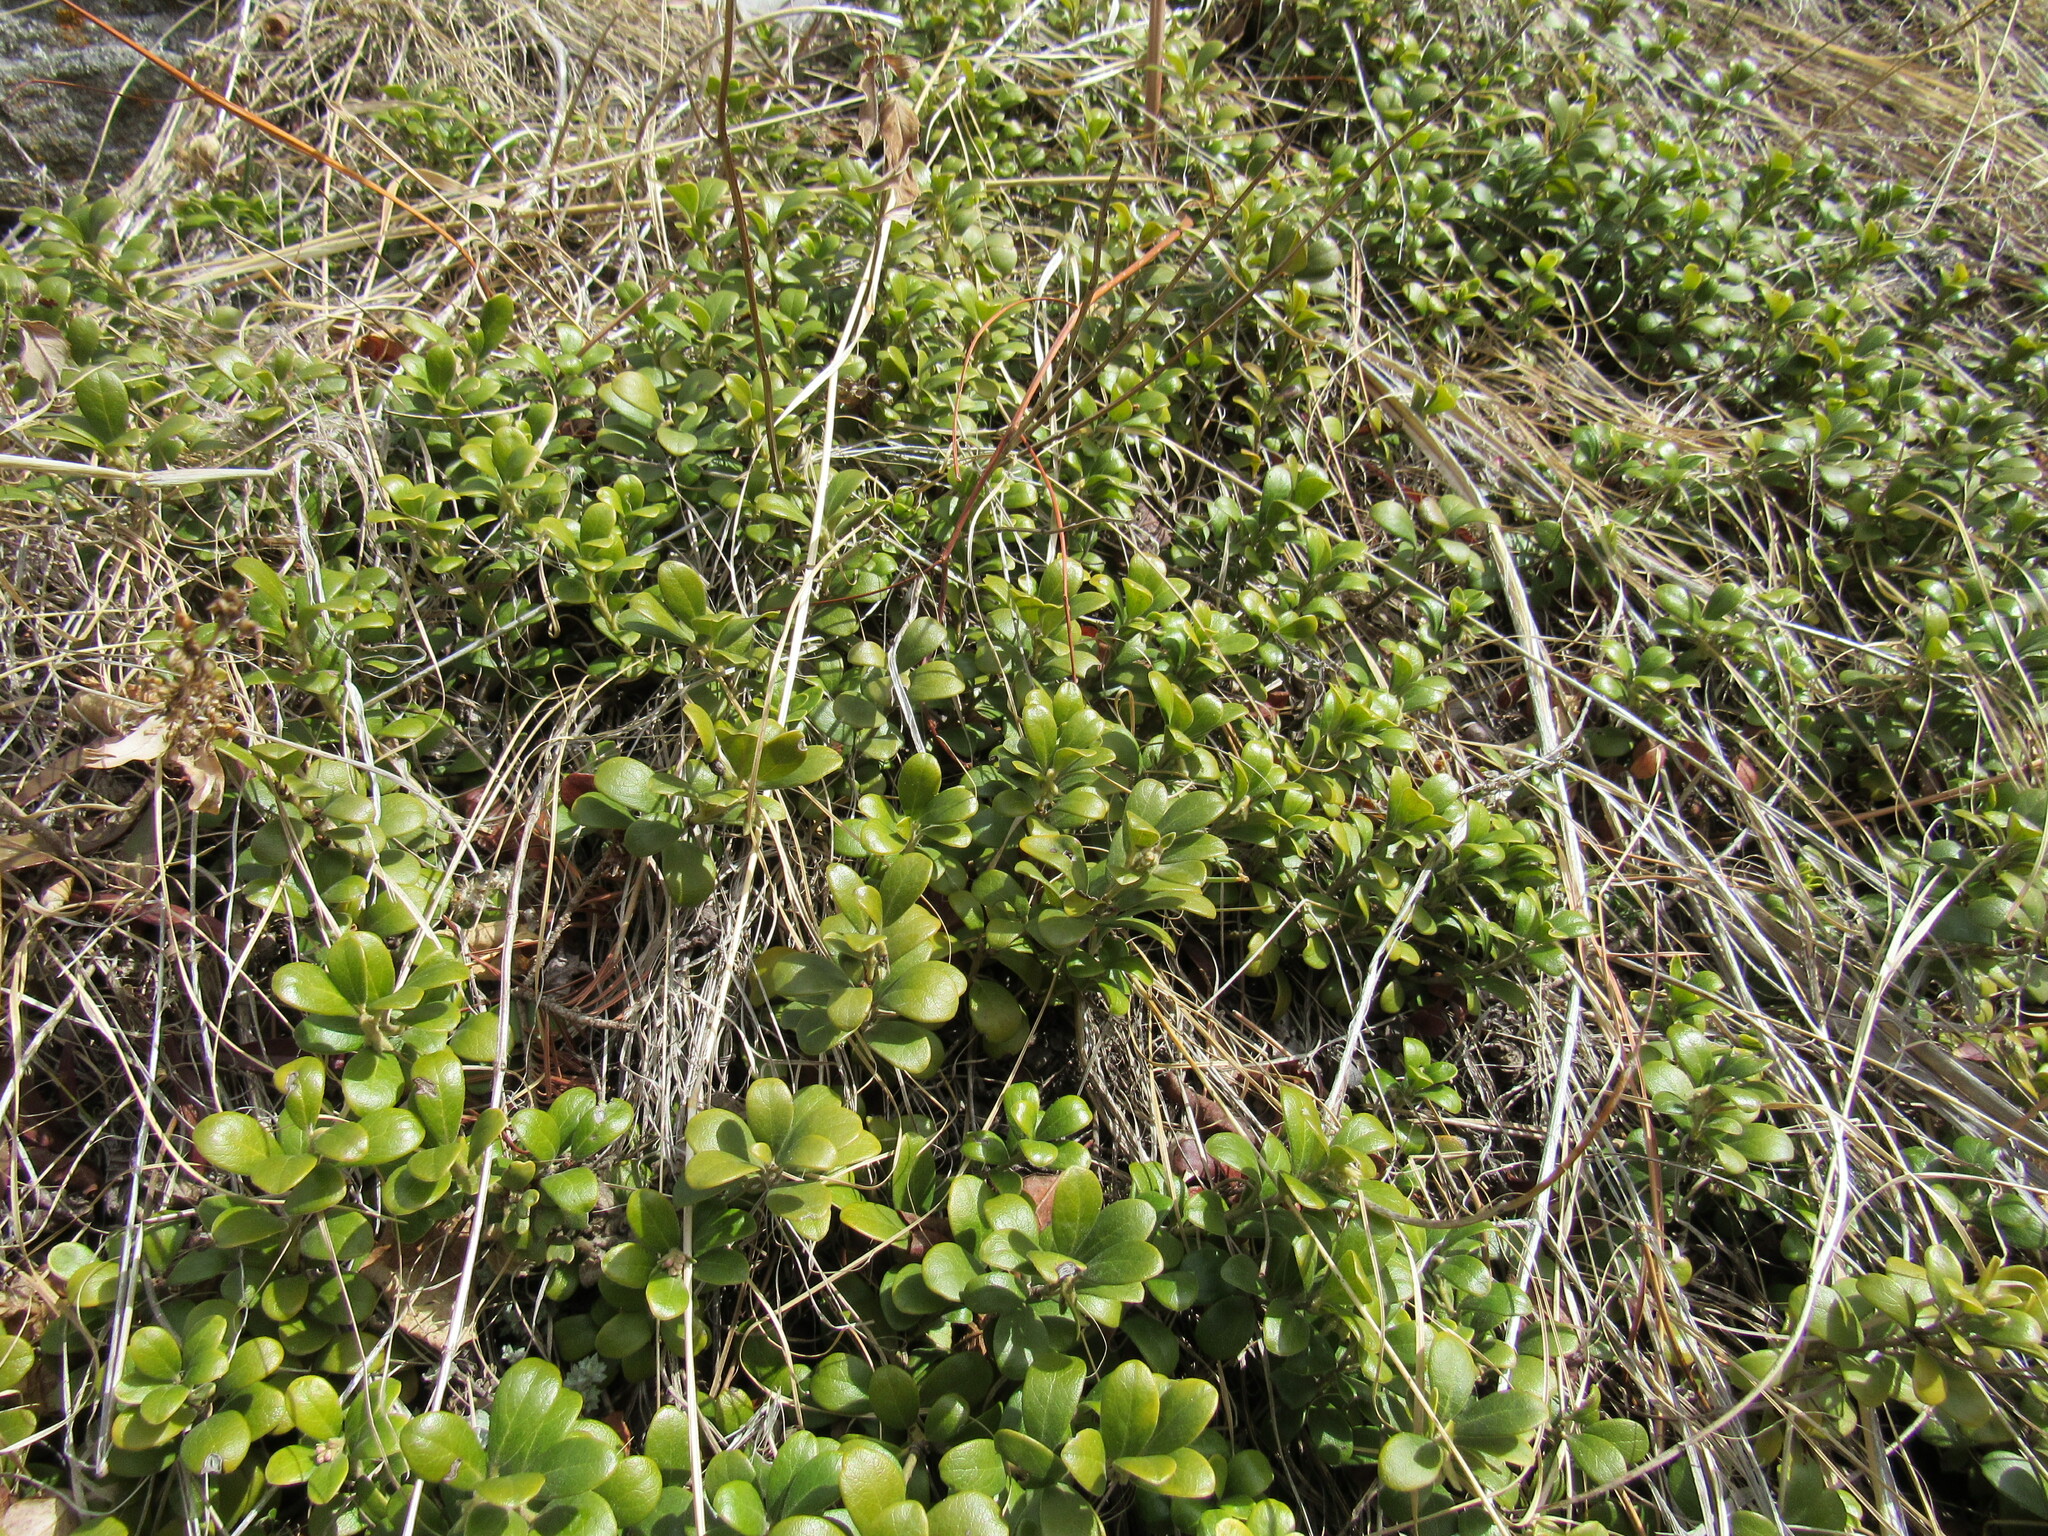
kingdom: Plantae
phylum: Tracheophyta
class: Magnoliopsida
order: Ericales
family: Ericaceae
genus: Arctostaphylos
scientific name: Arctostaphylos uva-ursi
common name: Bearberry
